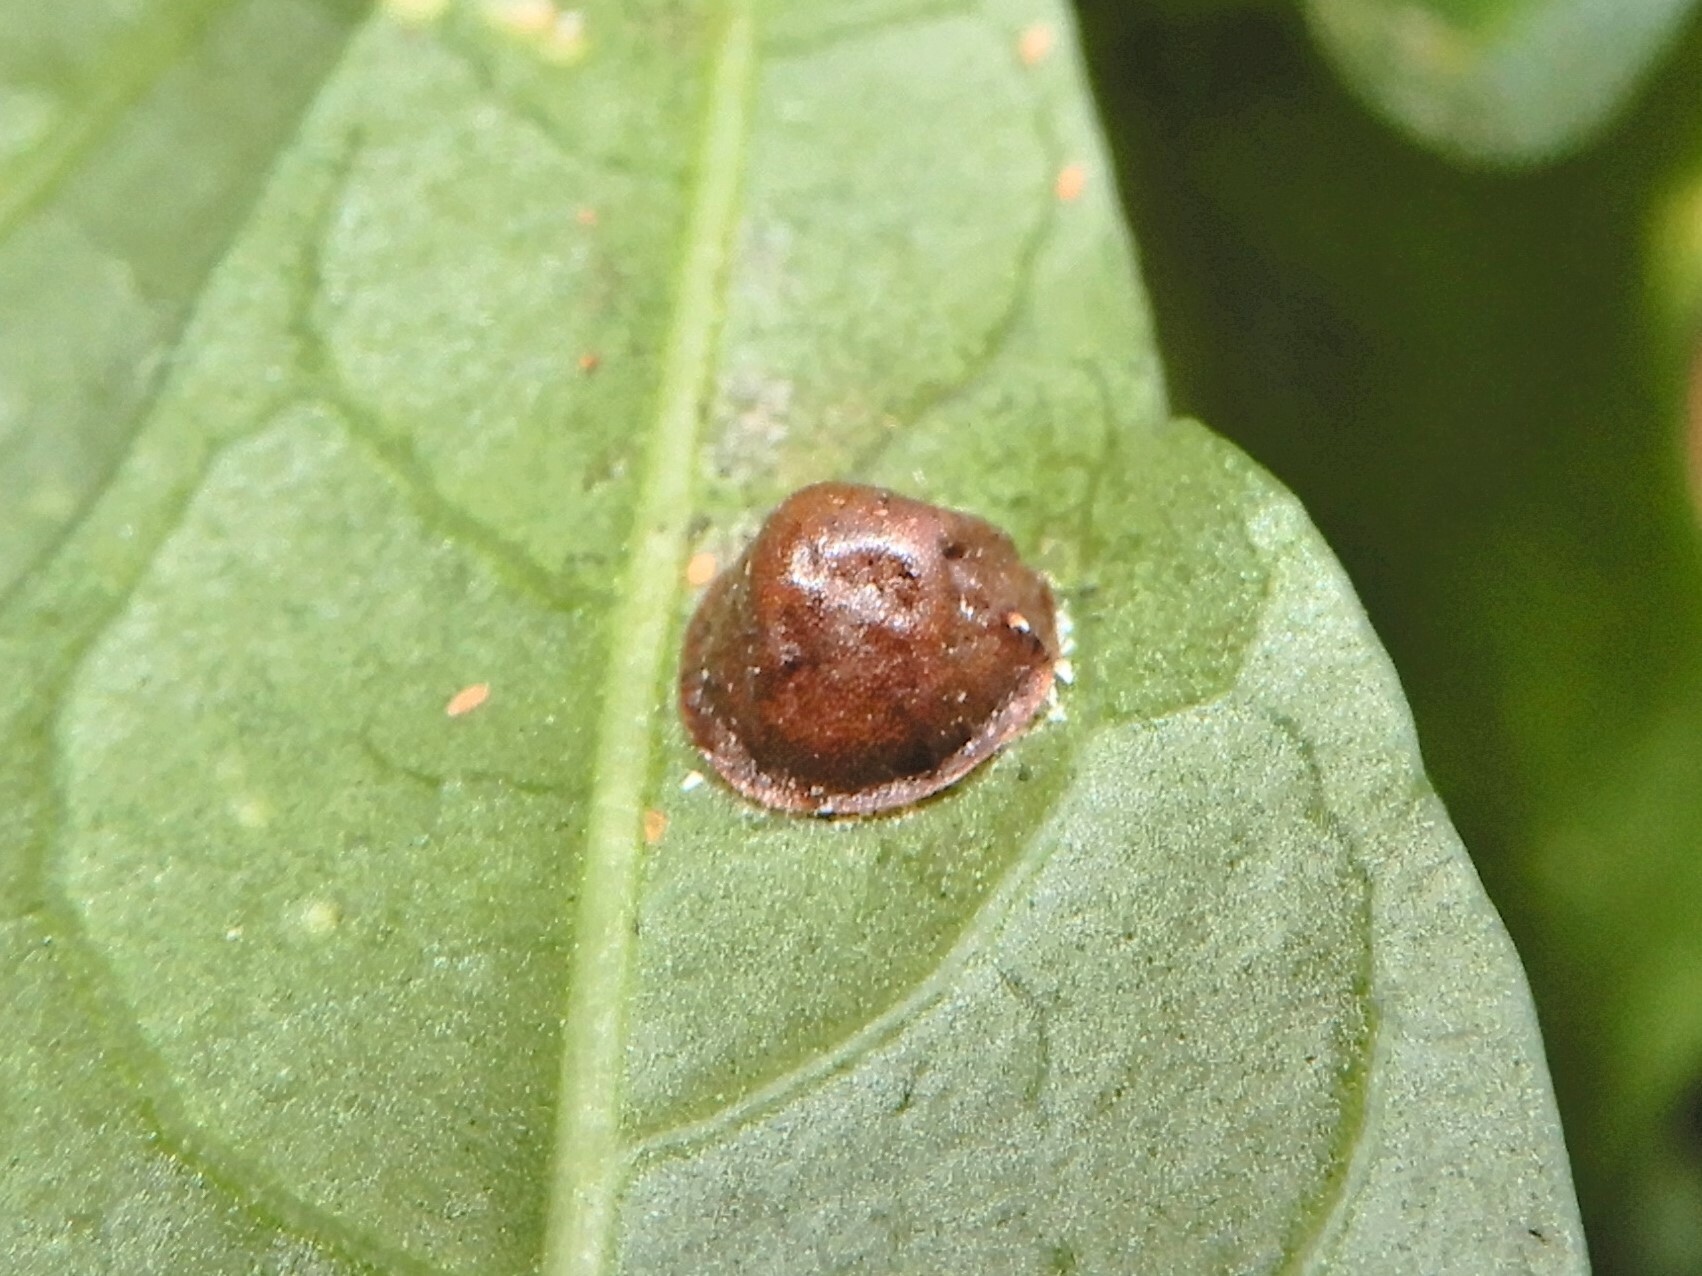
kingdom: Animalia
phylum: Arthropoda
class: Insecta
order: Hemiptera
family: Coccidae
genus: Saissetia
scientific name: Saissetia coffeae
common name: Hemispherical scale
